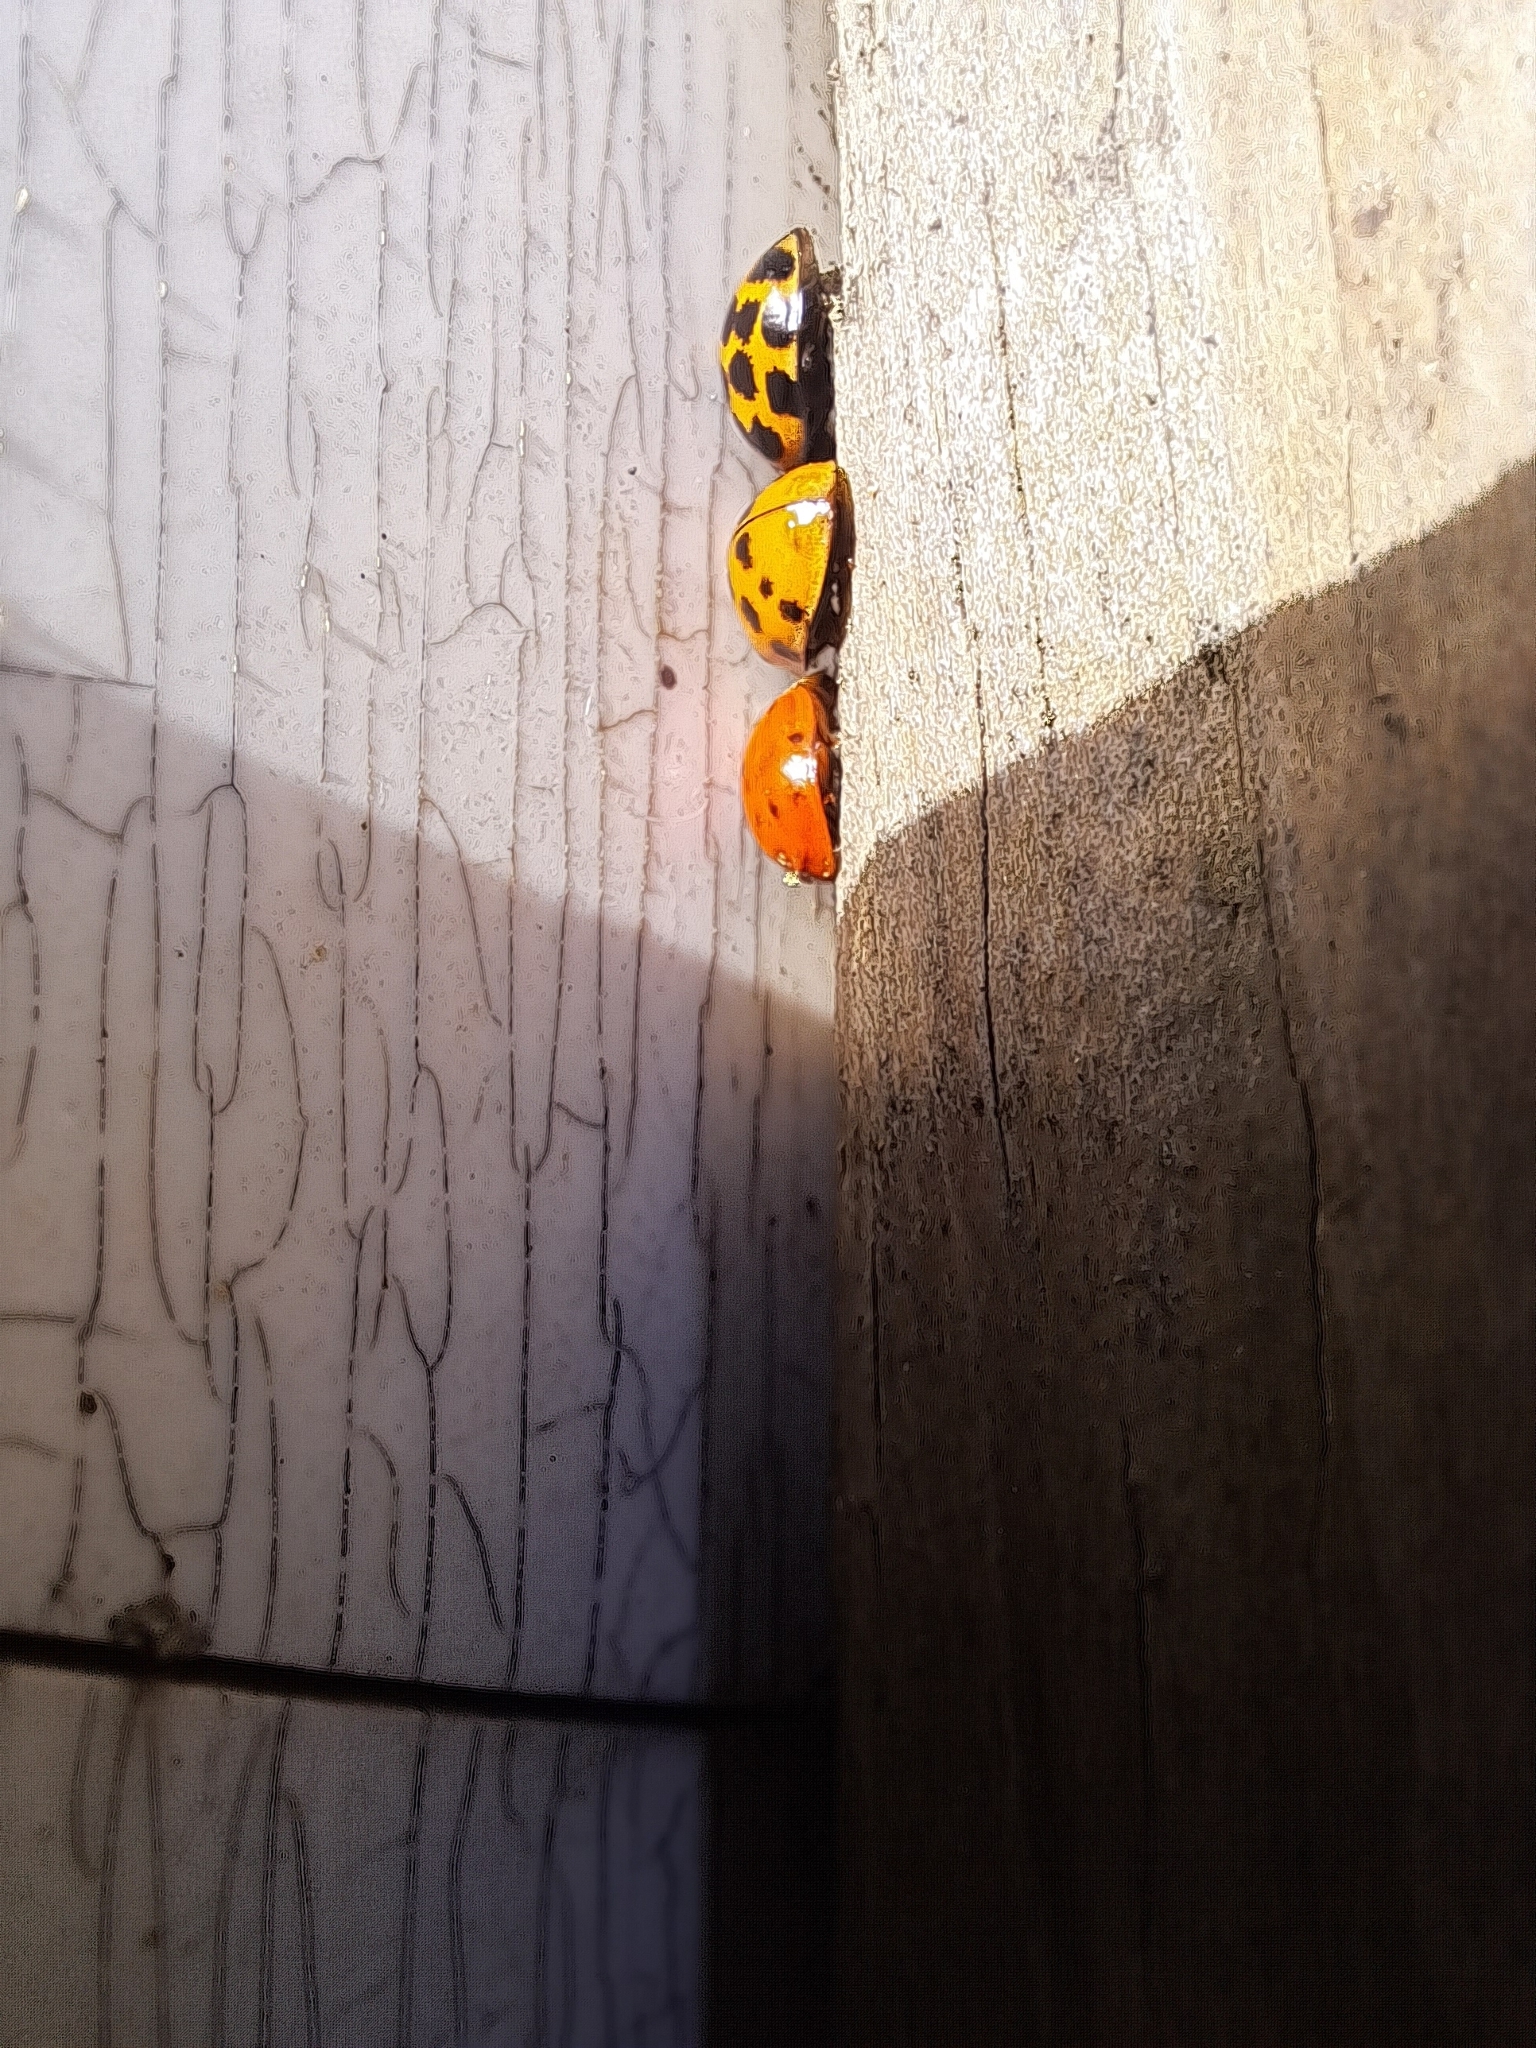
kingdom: Animalia
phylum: Arthropoda
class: Insecta
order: Coleoptera
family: Coccinellidae
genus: Harmonia
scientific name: Harmonia axyridis
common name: Harlequin ladybird
